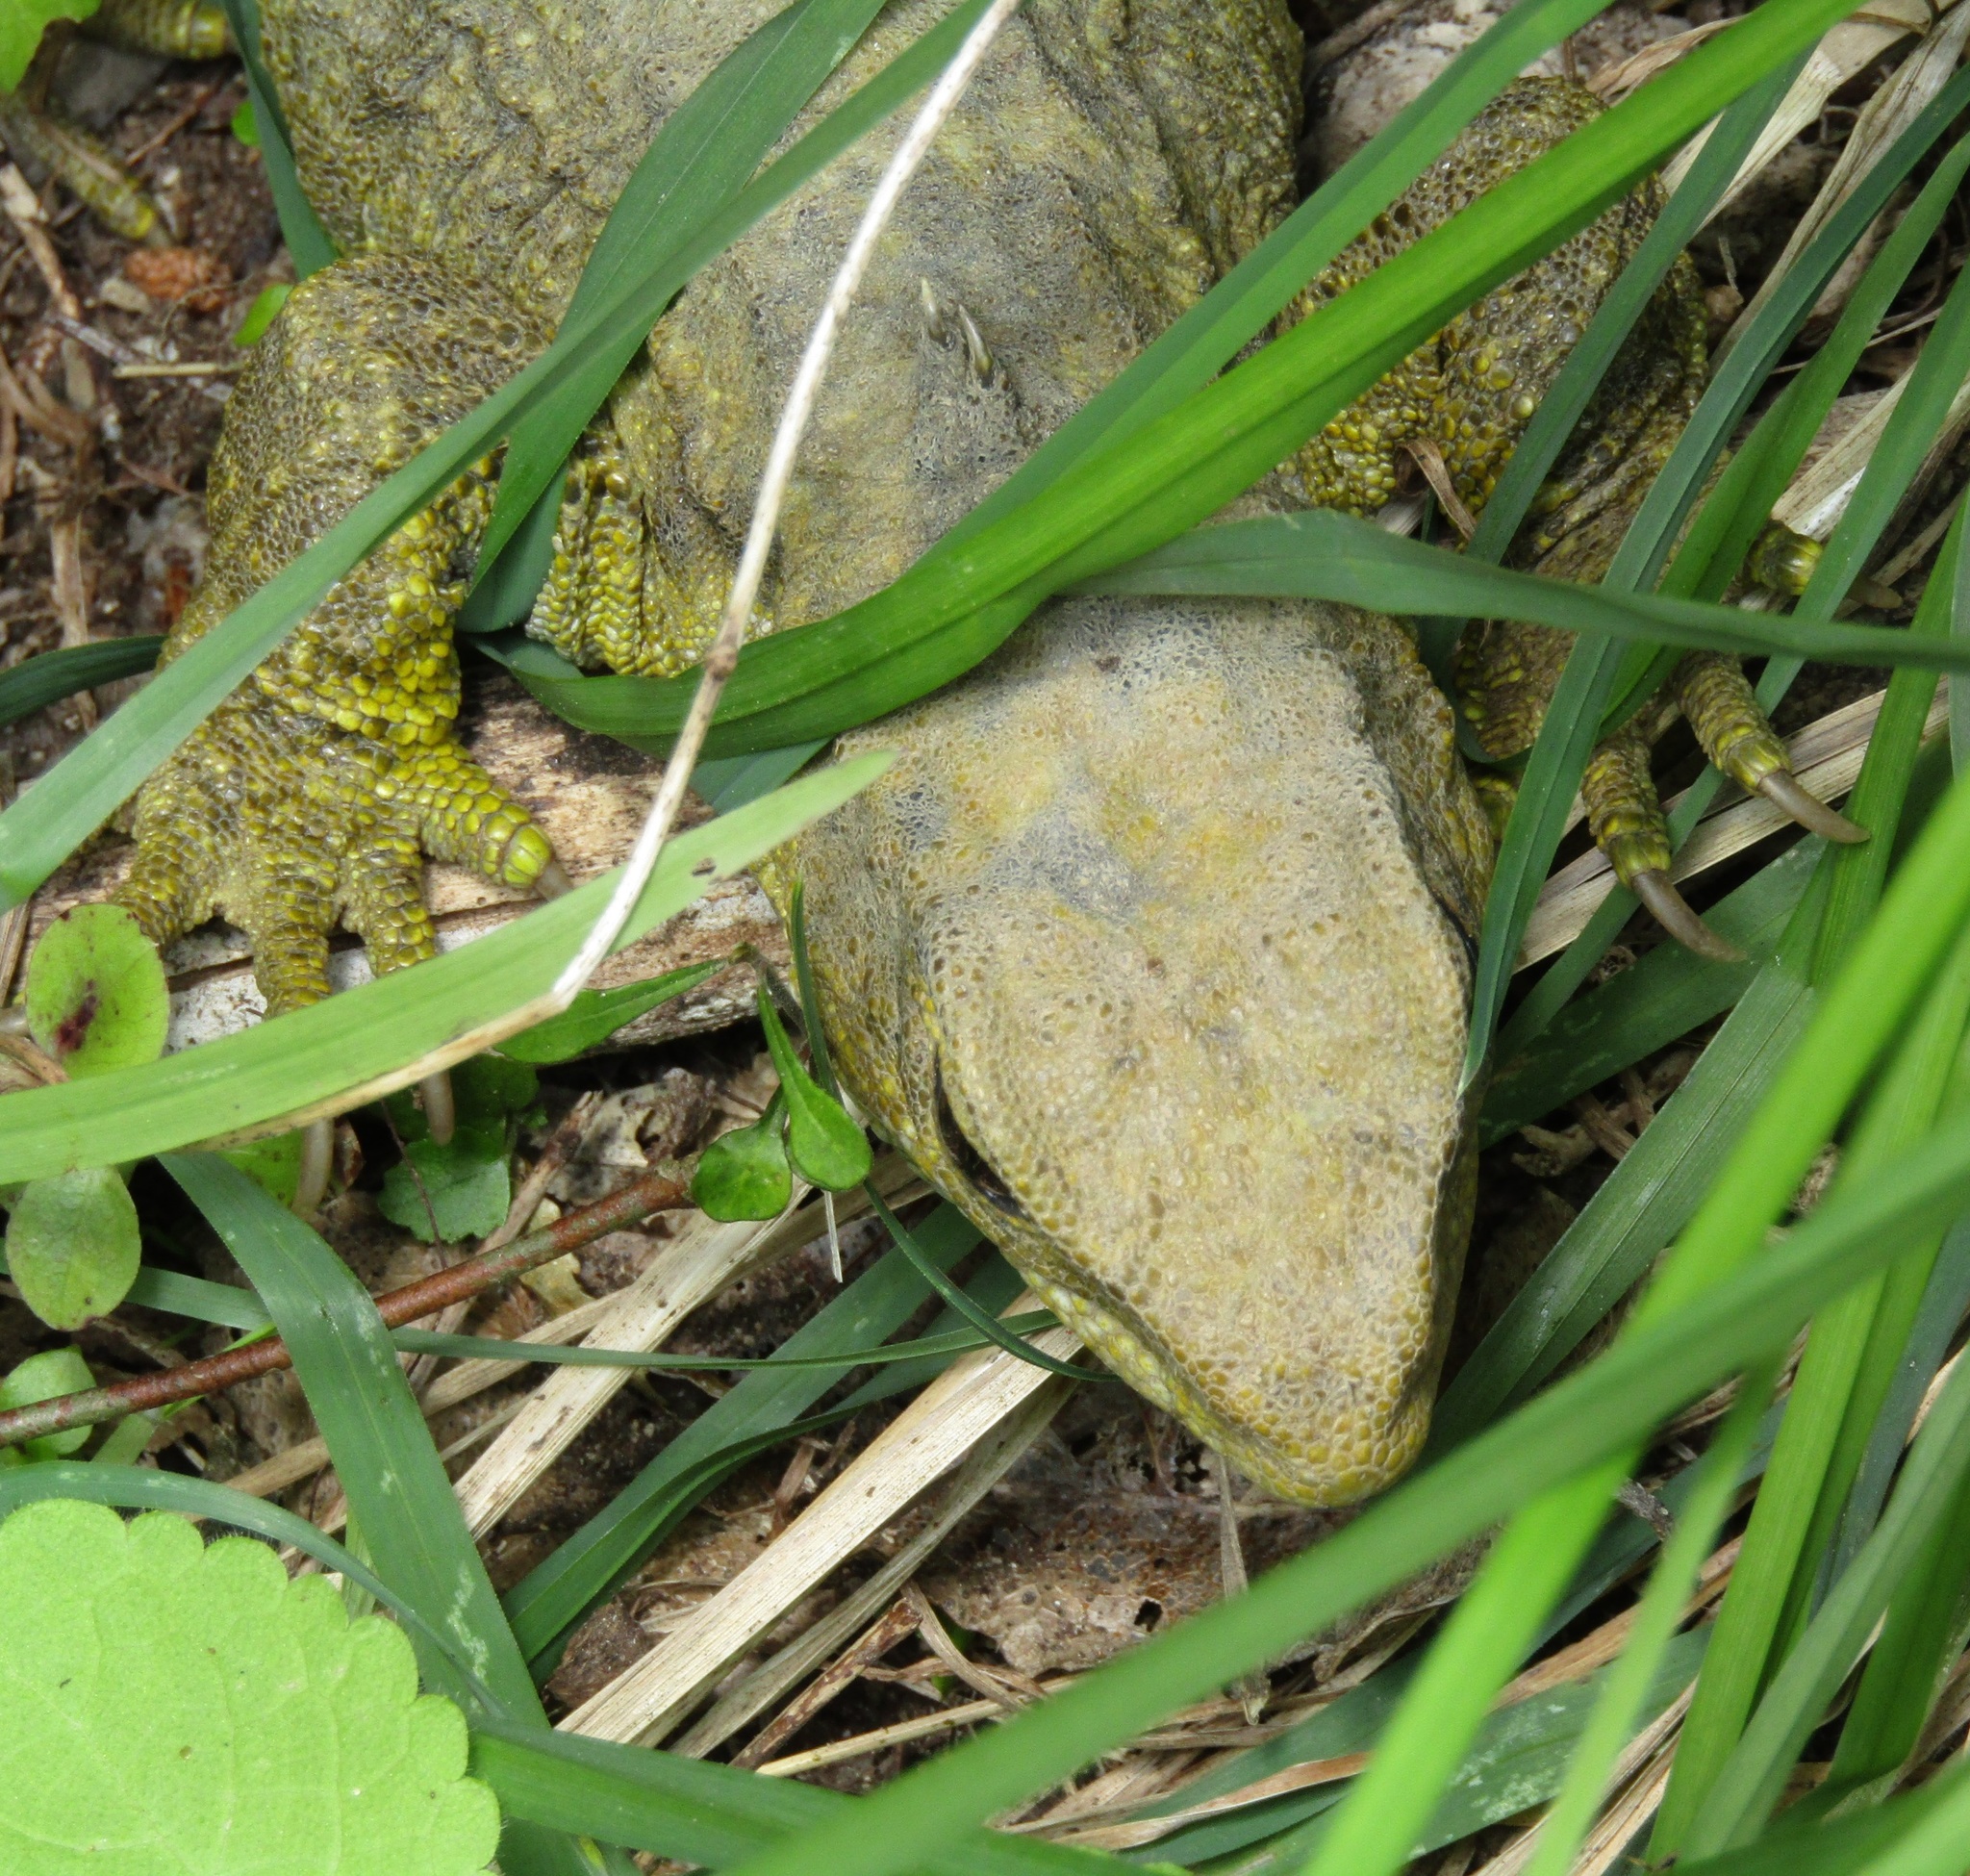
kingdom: Animalia
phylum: Chordata
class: Sphenodontia
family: Sphenodontidae
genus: Sphenodon
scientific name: Sphenodon punctatus
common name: Tuatara
